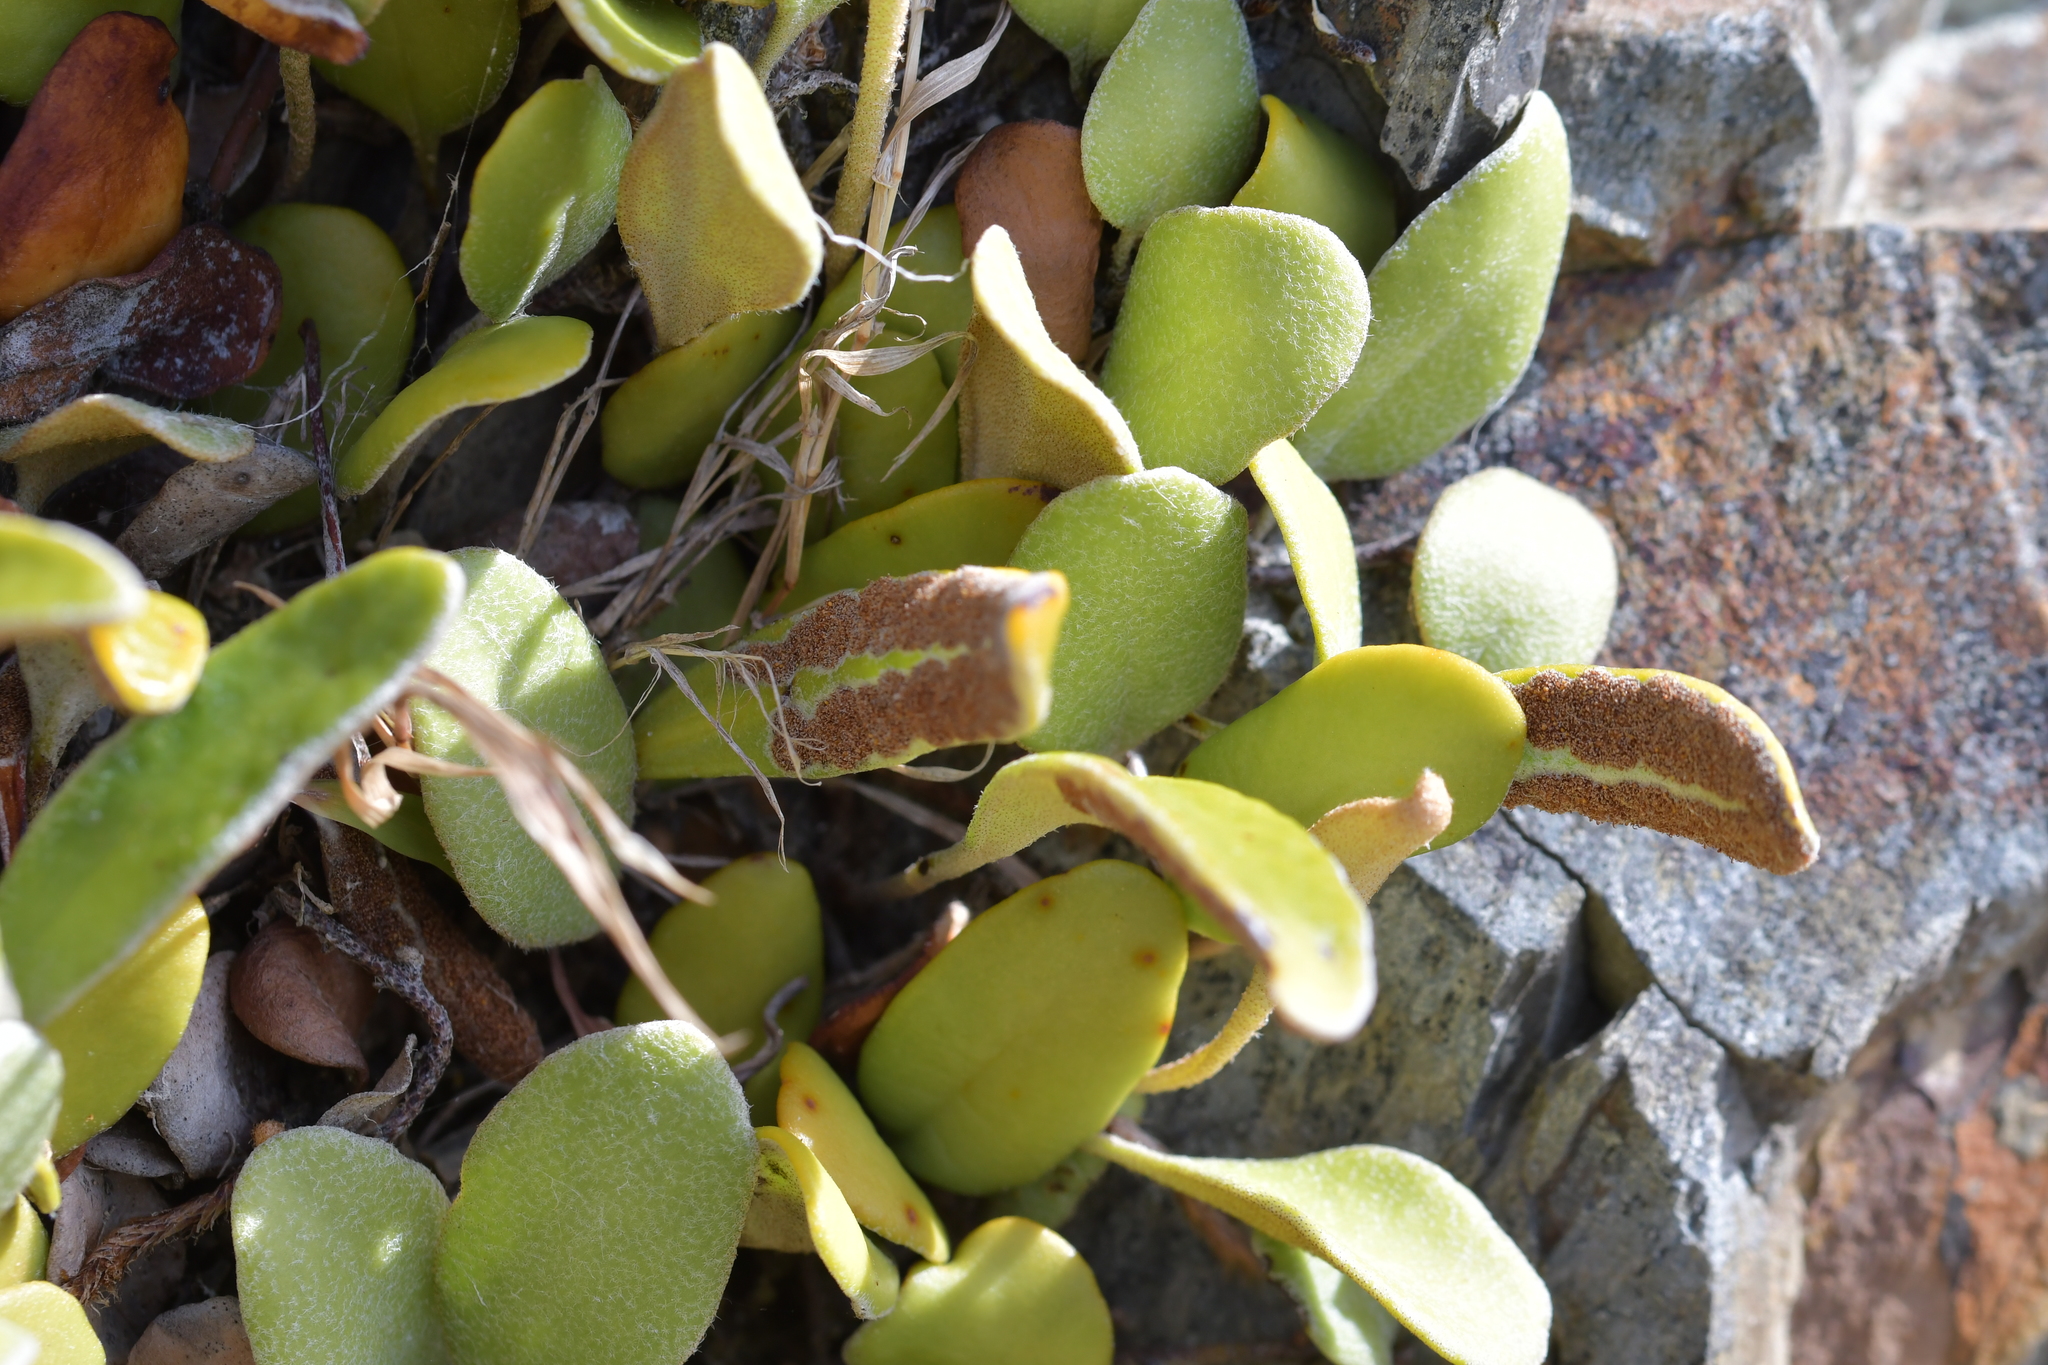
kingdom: Plantae
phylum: Tracheophyta
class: Polypodiopsida
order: Polypodiales
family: Polypodiaceae
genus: Pyrrosia
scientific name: Pyrrosia eleagnifolia
